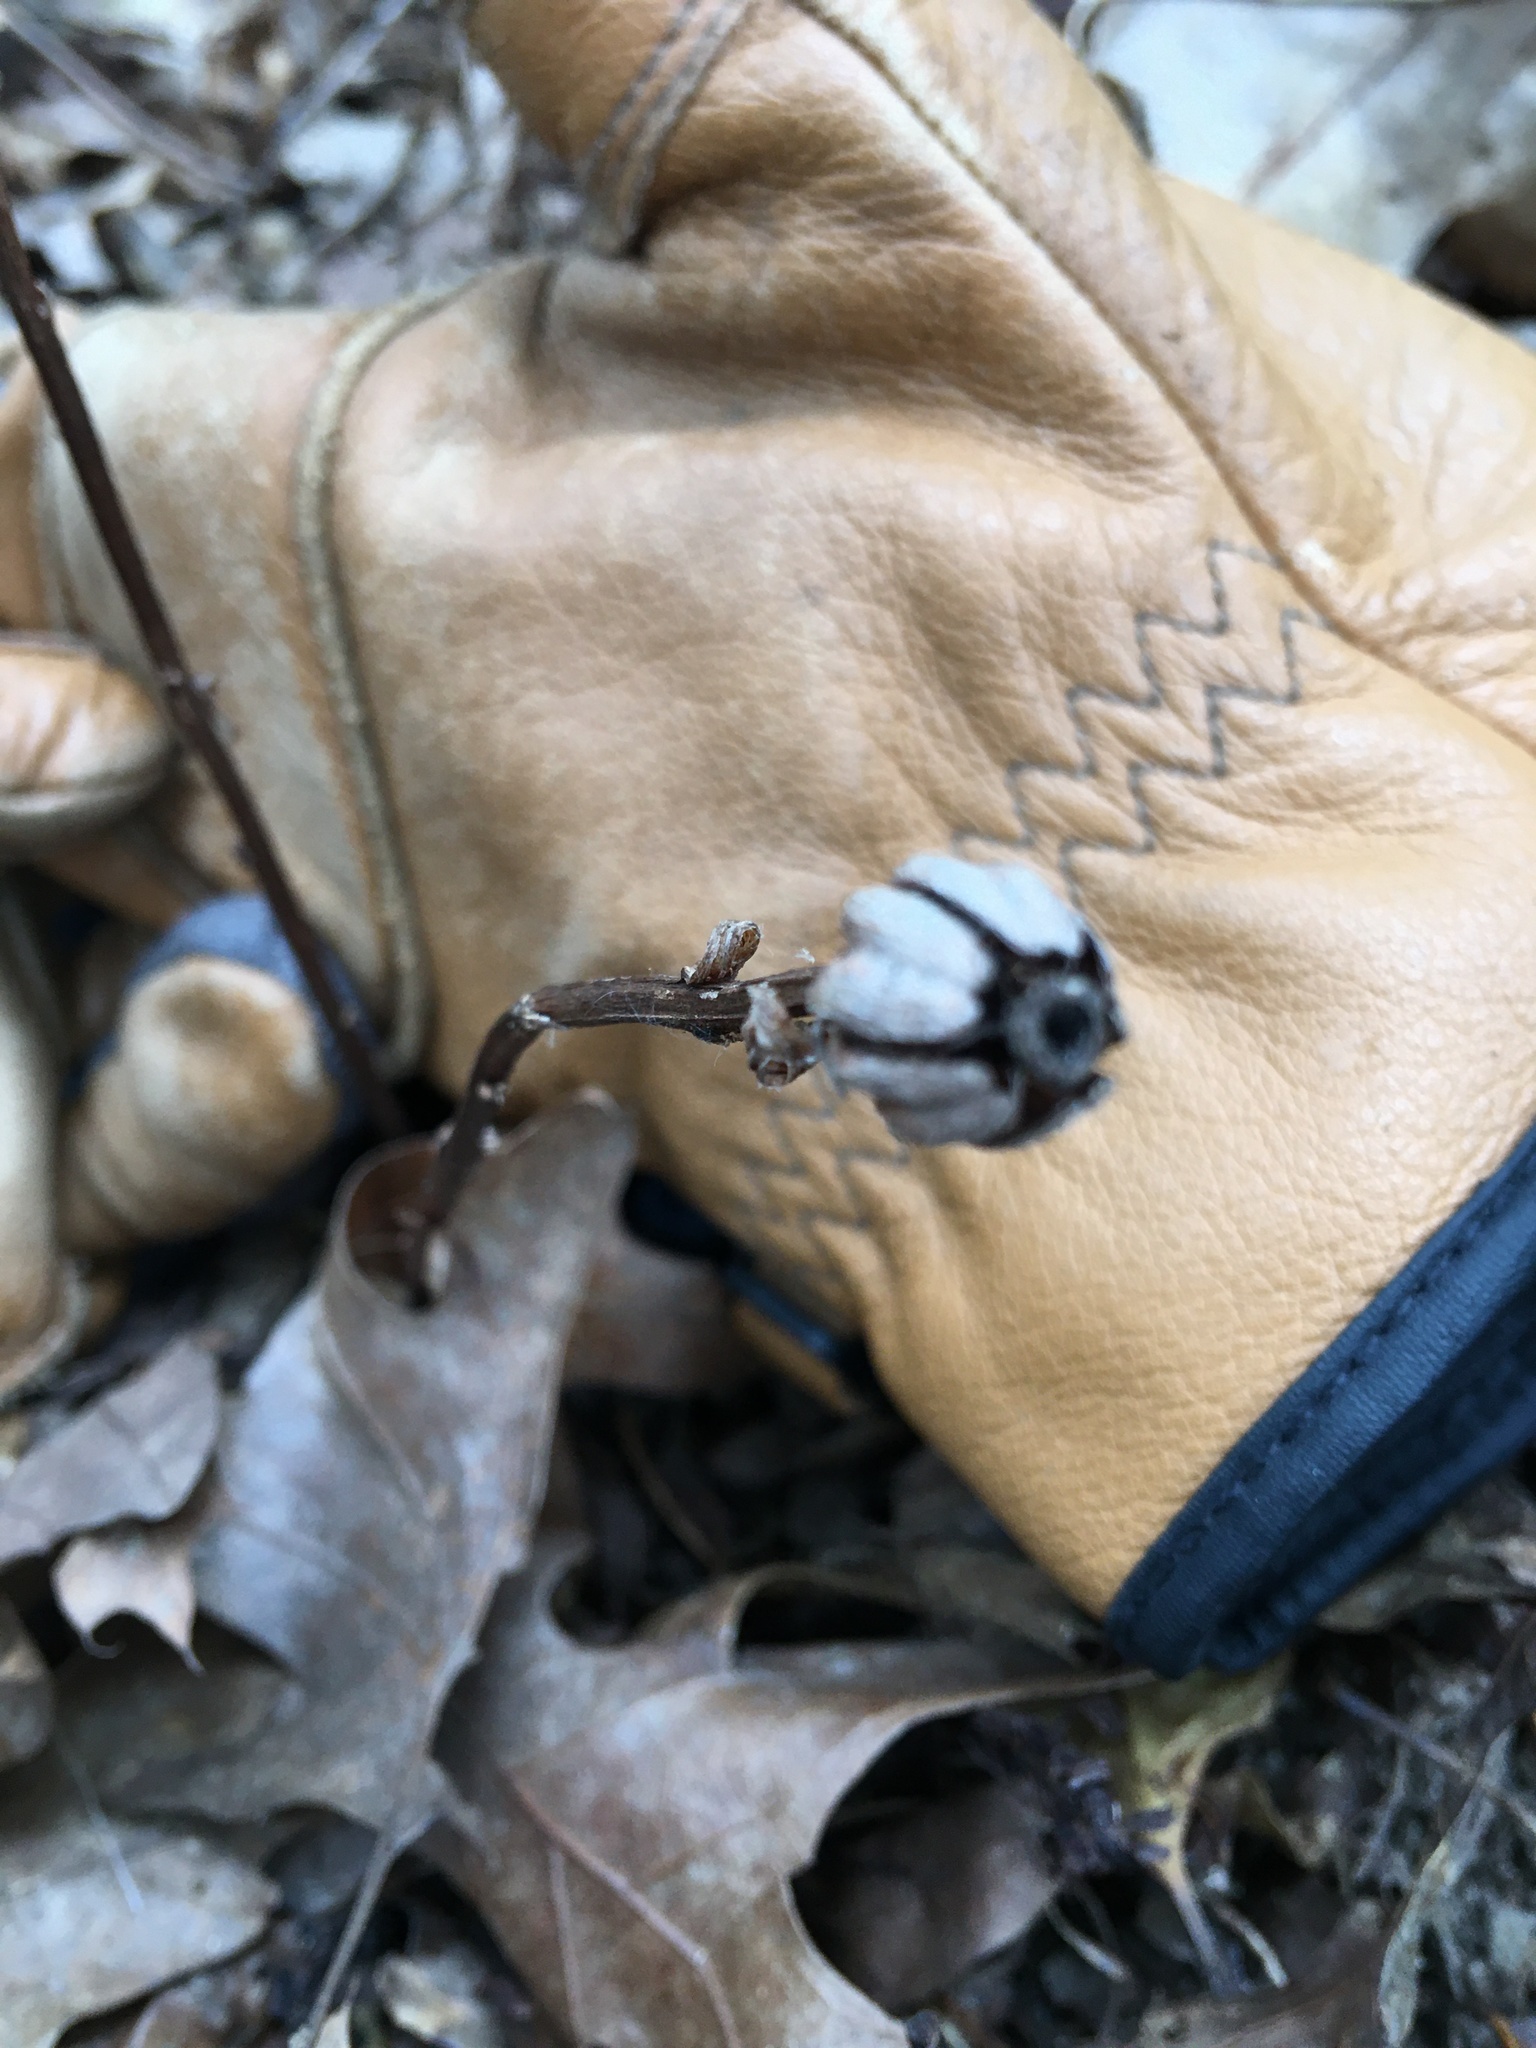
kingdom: Plantae
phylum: Tracheophyta
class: Magnoliopsida
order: Ericales
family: Ericaceae
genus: Monotropa
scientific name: Monotropa uniflora
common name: Convulsion root
